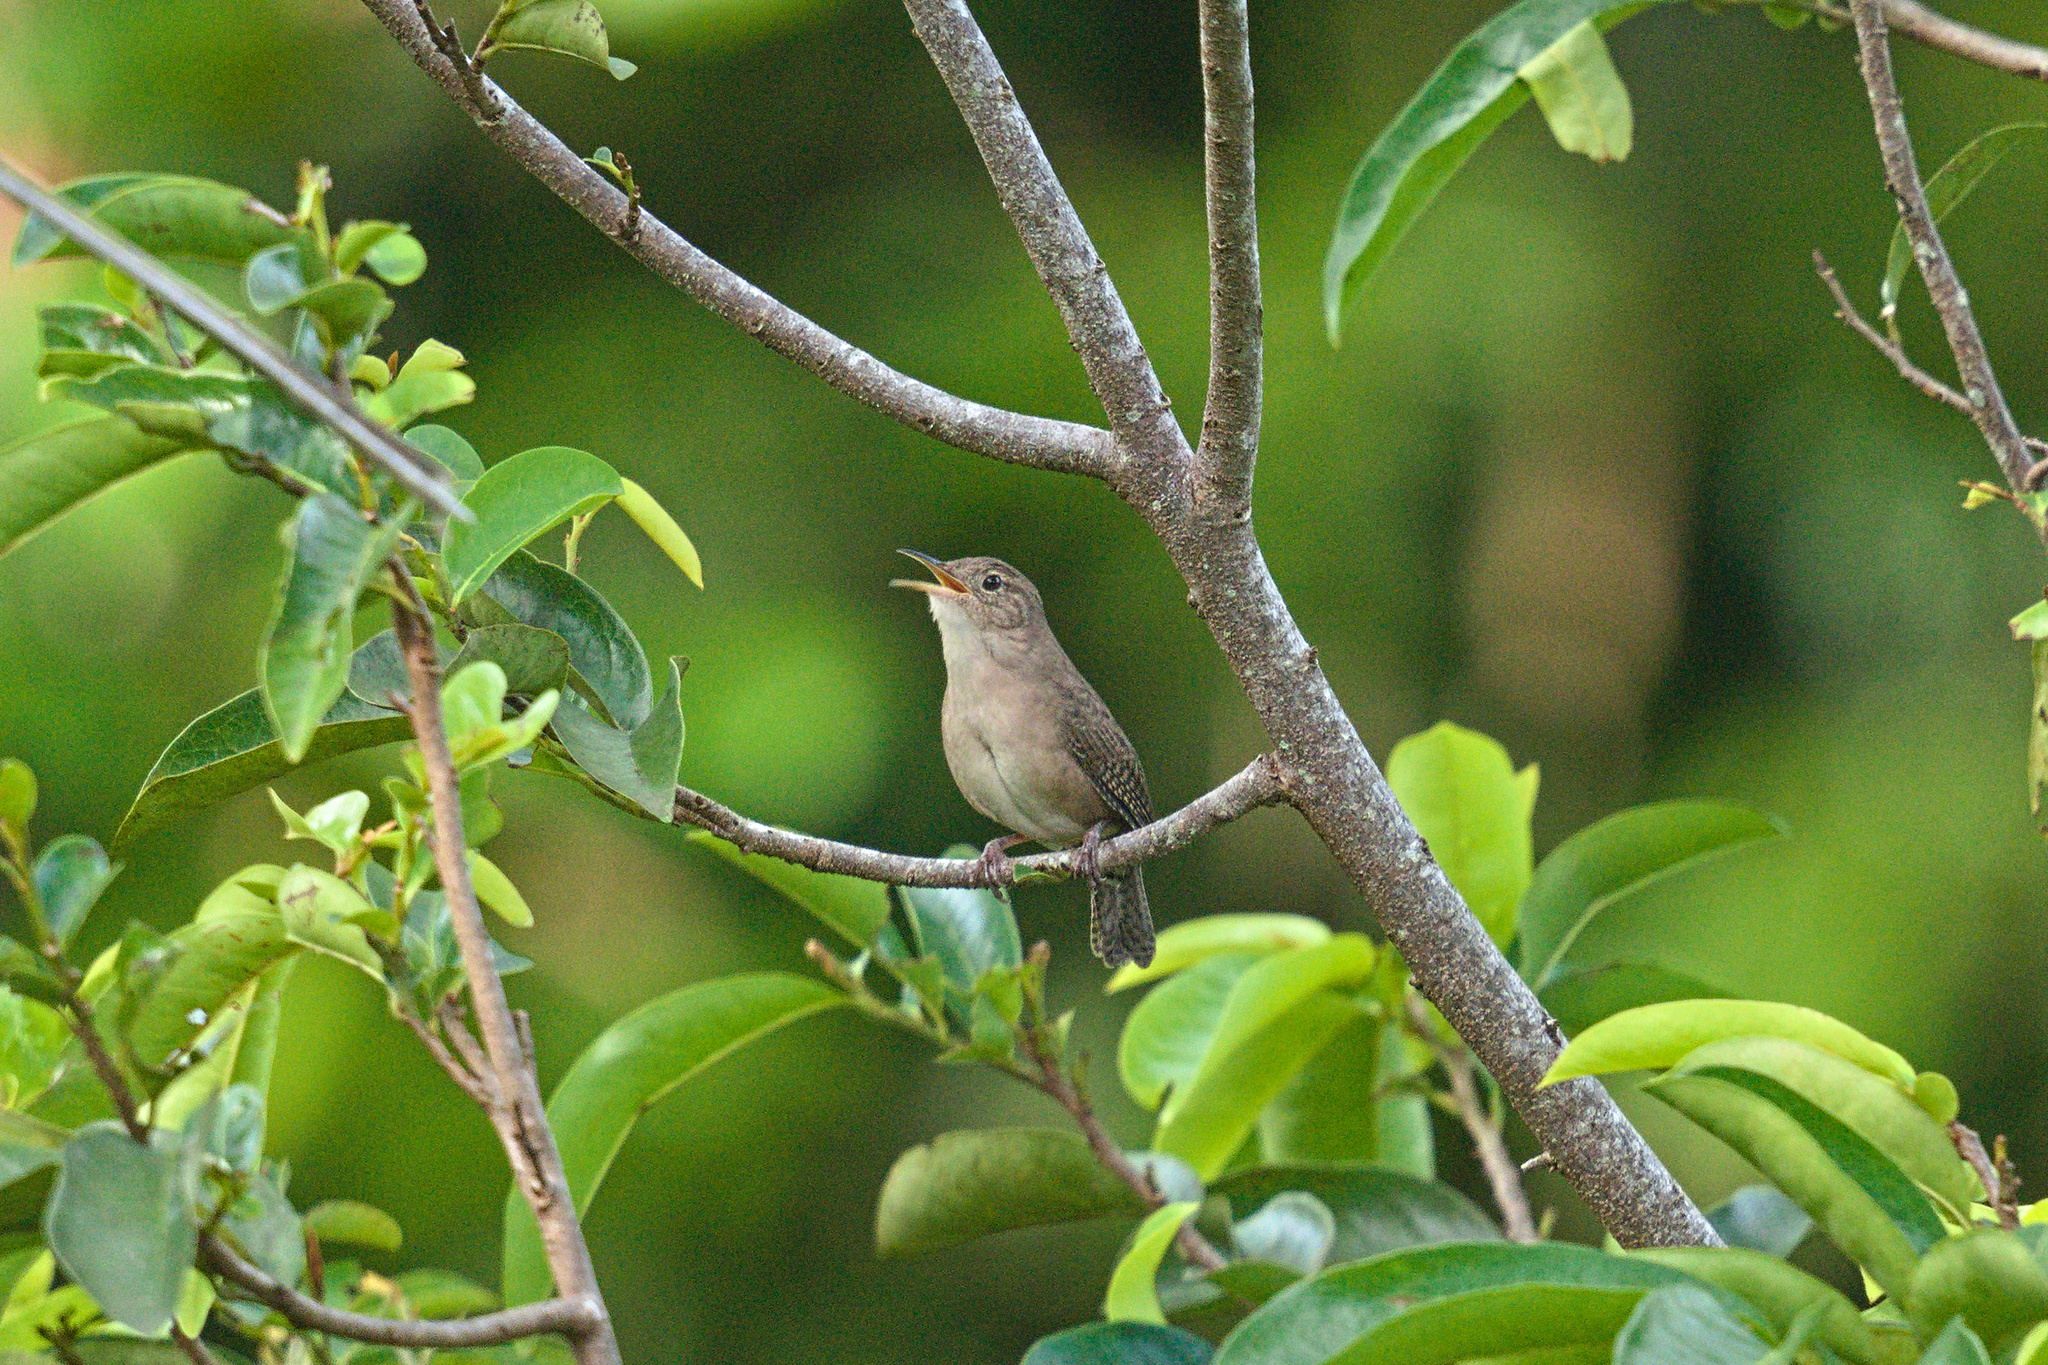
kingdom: Animalia
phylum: Chordata
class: Aves
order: Passeriformes
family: Troglodytidae
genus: Troglodytes
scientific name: Troglodytes aedon
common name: House wren
